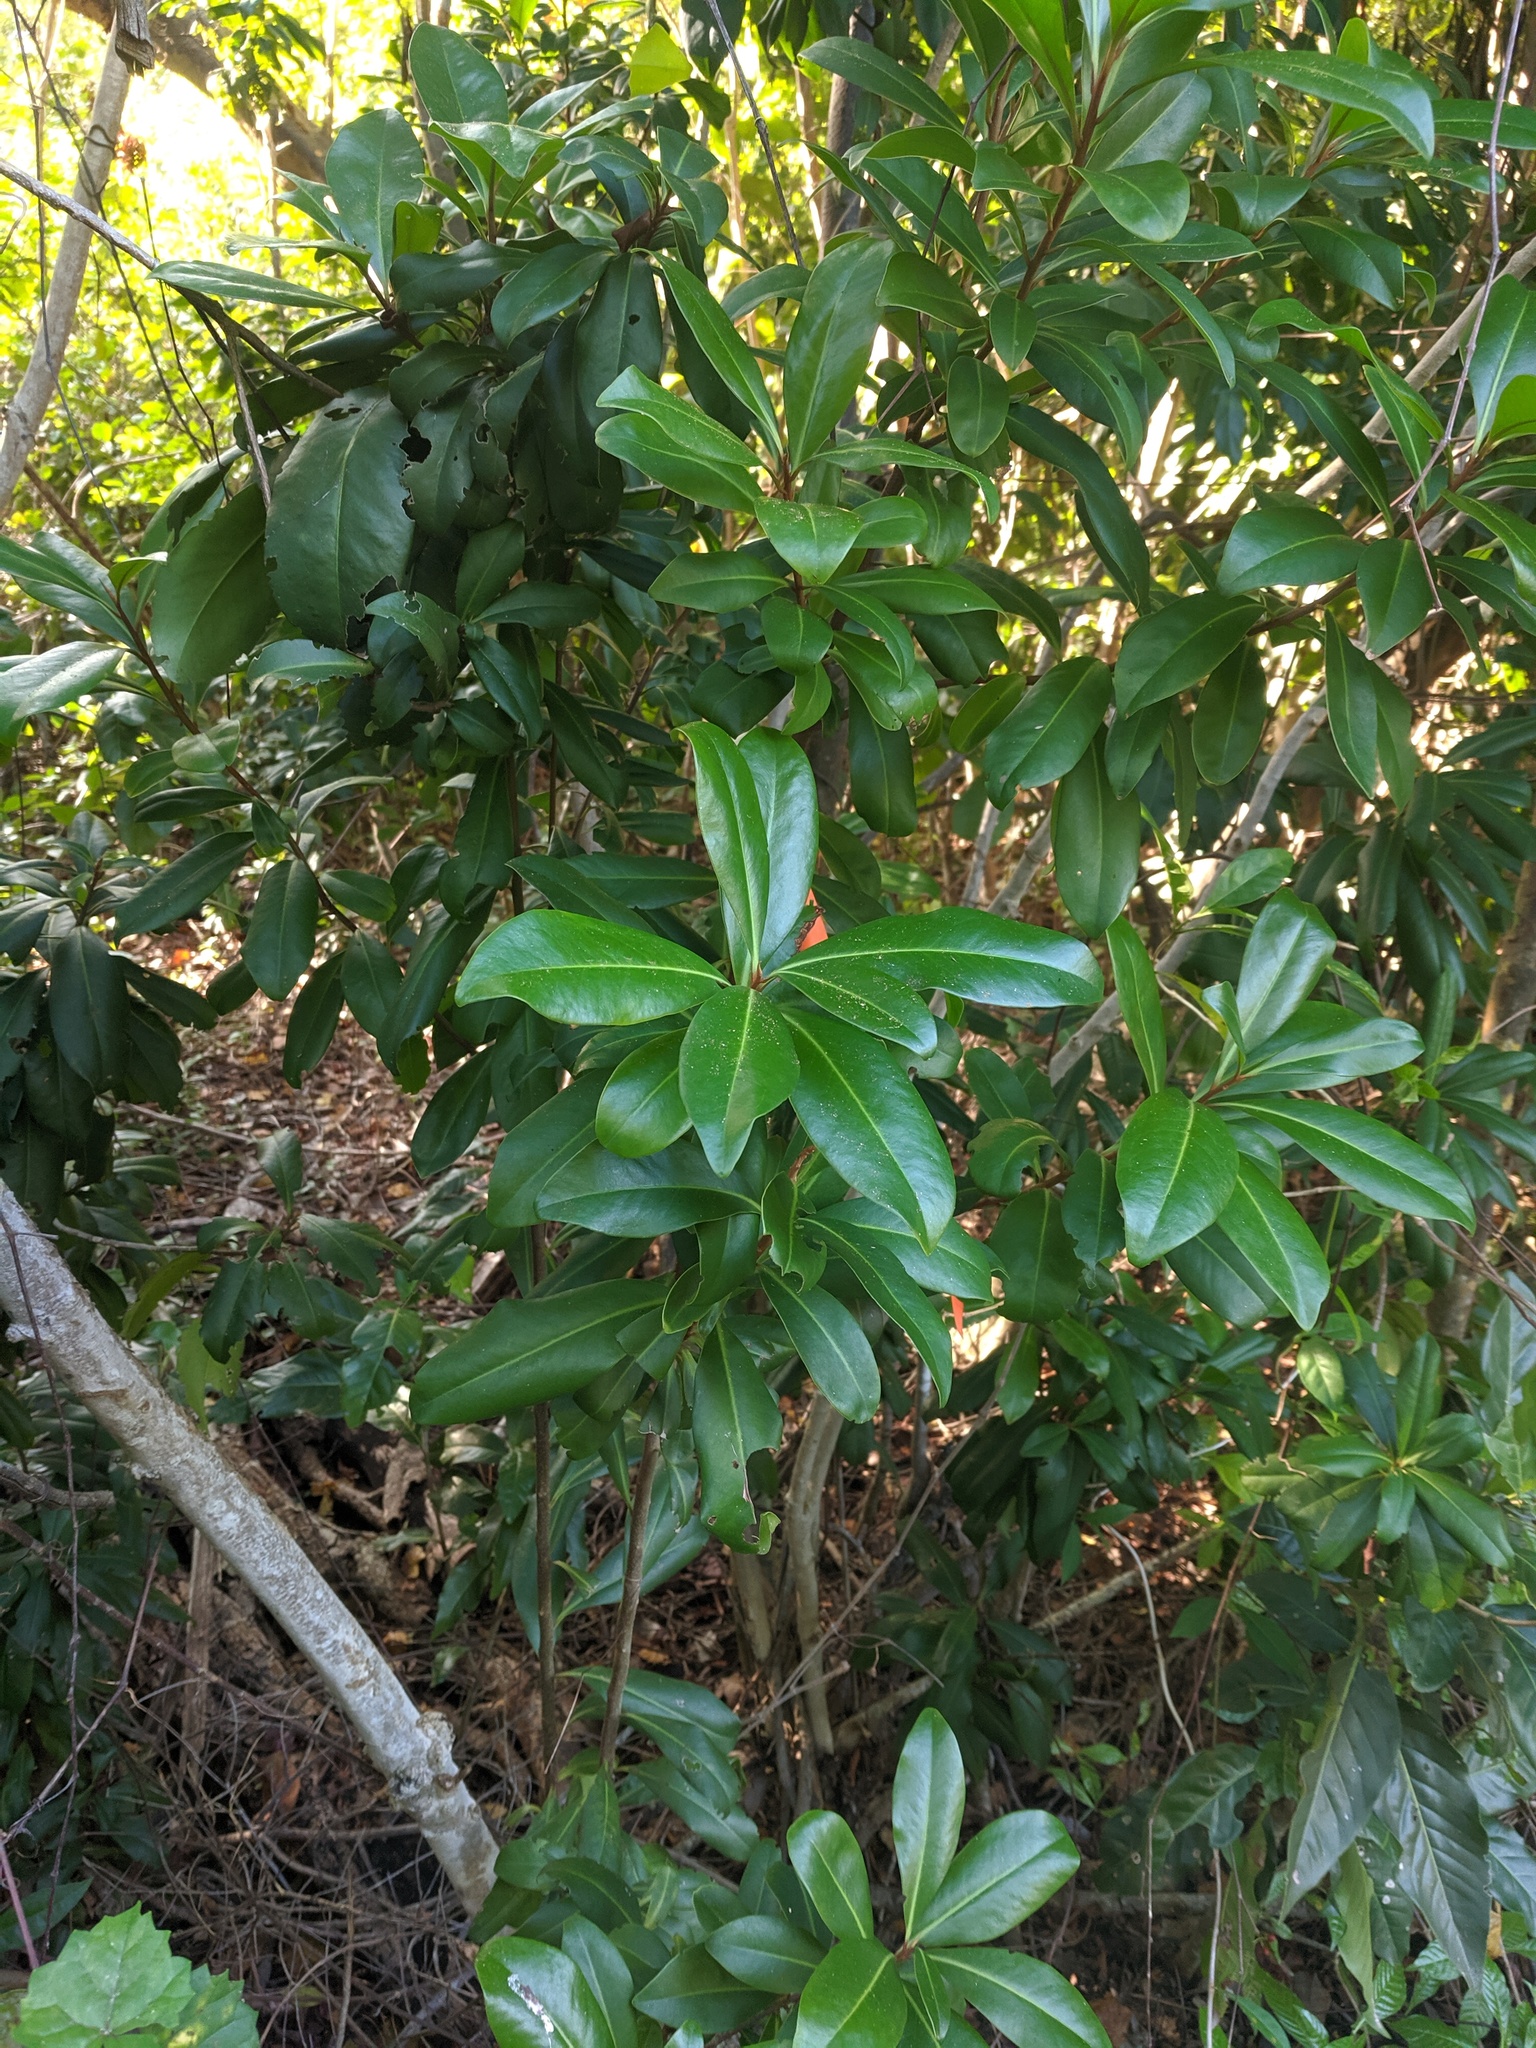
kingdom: Plantae
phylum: Tracheophyta
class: Magnoliopsida
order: Ericales
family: Primulaceae
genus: Ardisia
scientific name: Ardisia escallonioides
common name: Island marlberry
